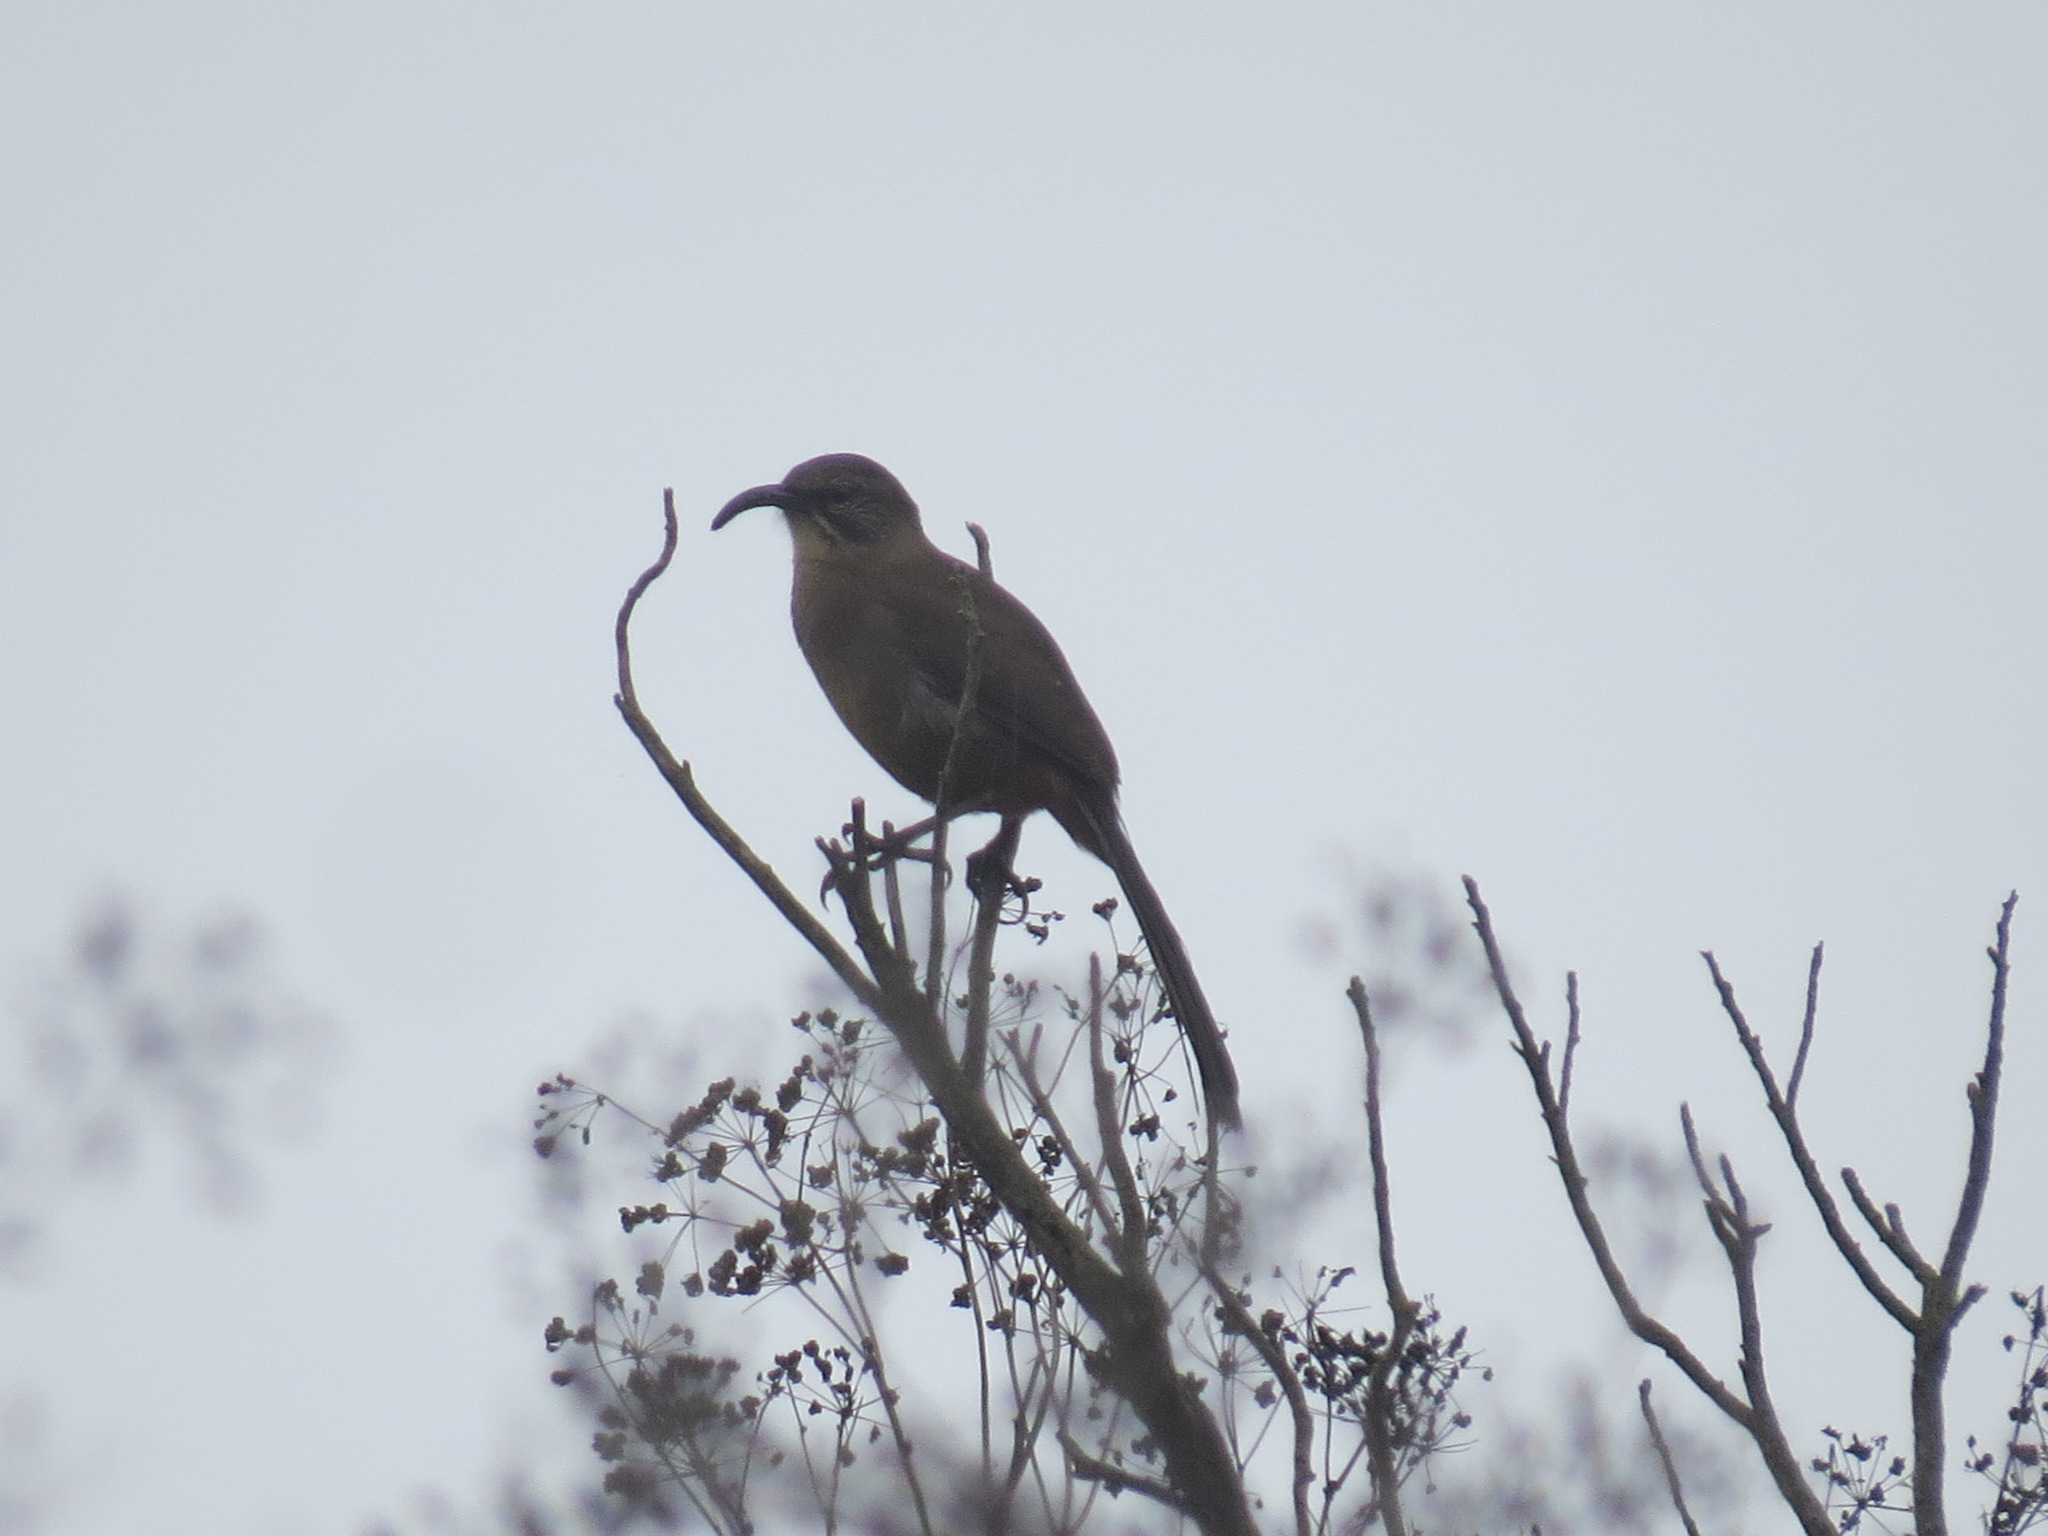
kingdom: Animalia
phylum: Chordata
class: Aves
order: Passeriformes
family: Mimidae
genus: Toxostoma
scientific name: Toxostoma redivivum
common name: California thrasher
